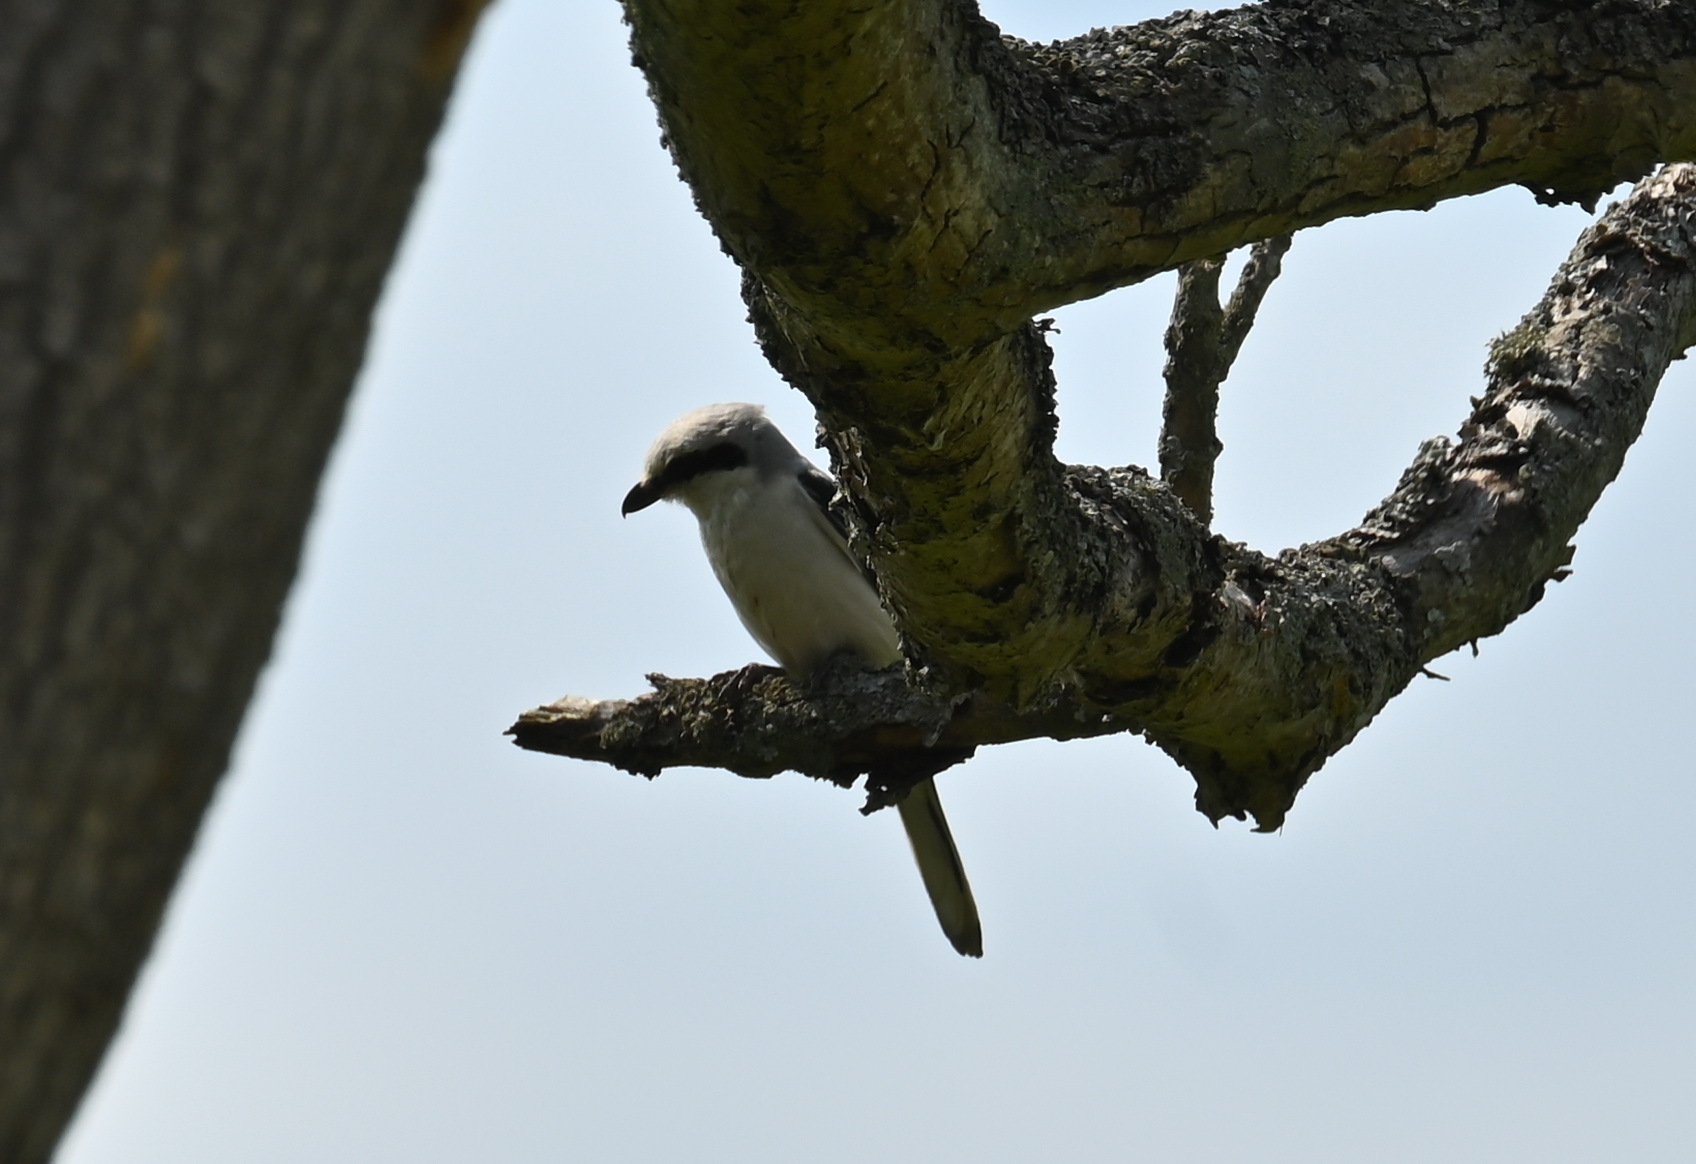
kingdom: Animalia
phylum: Chordata
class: Aves
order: Passeriformes
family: Laniidae
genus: Lanius
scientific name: Lanius excubitor
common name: Great grey shrike
